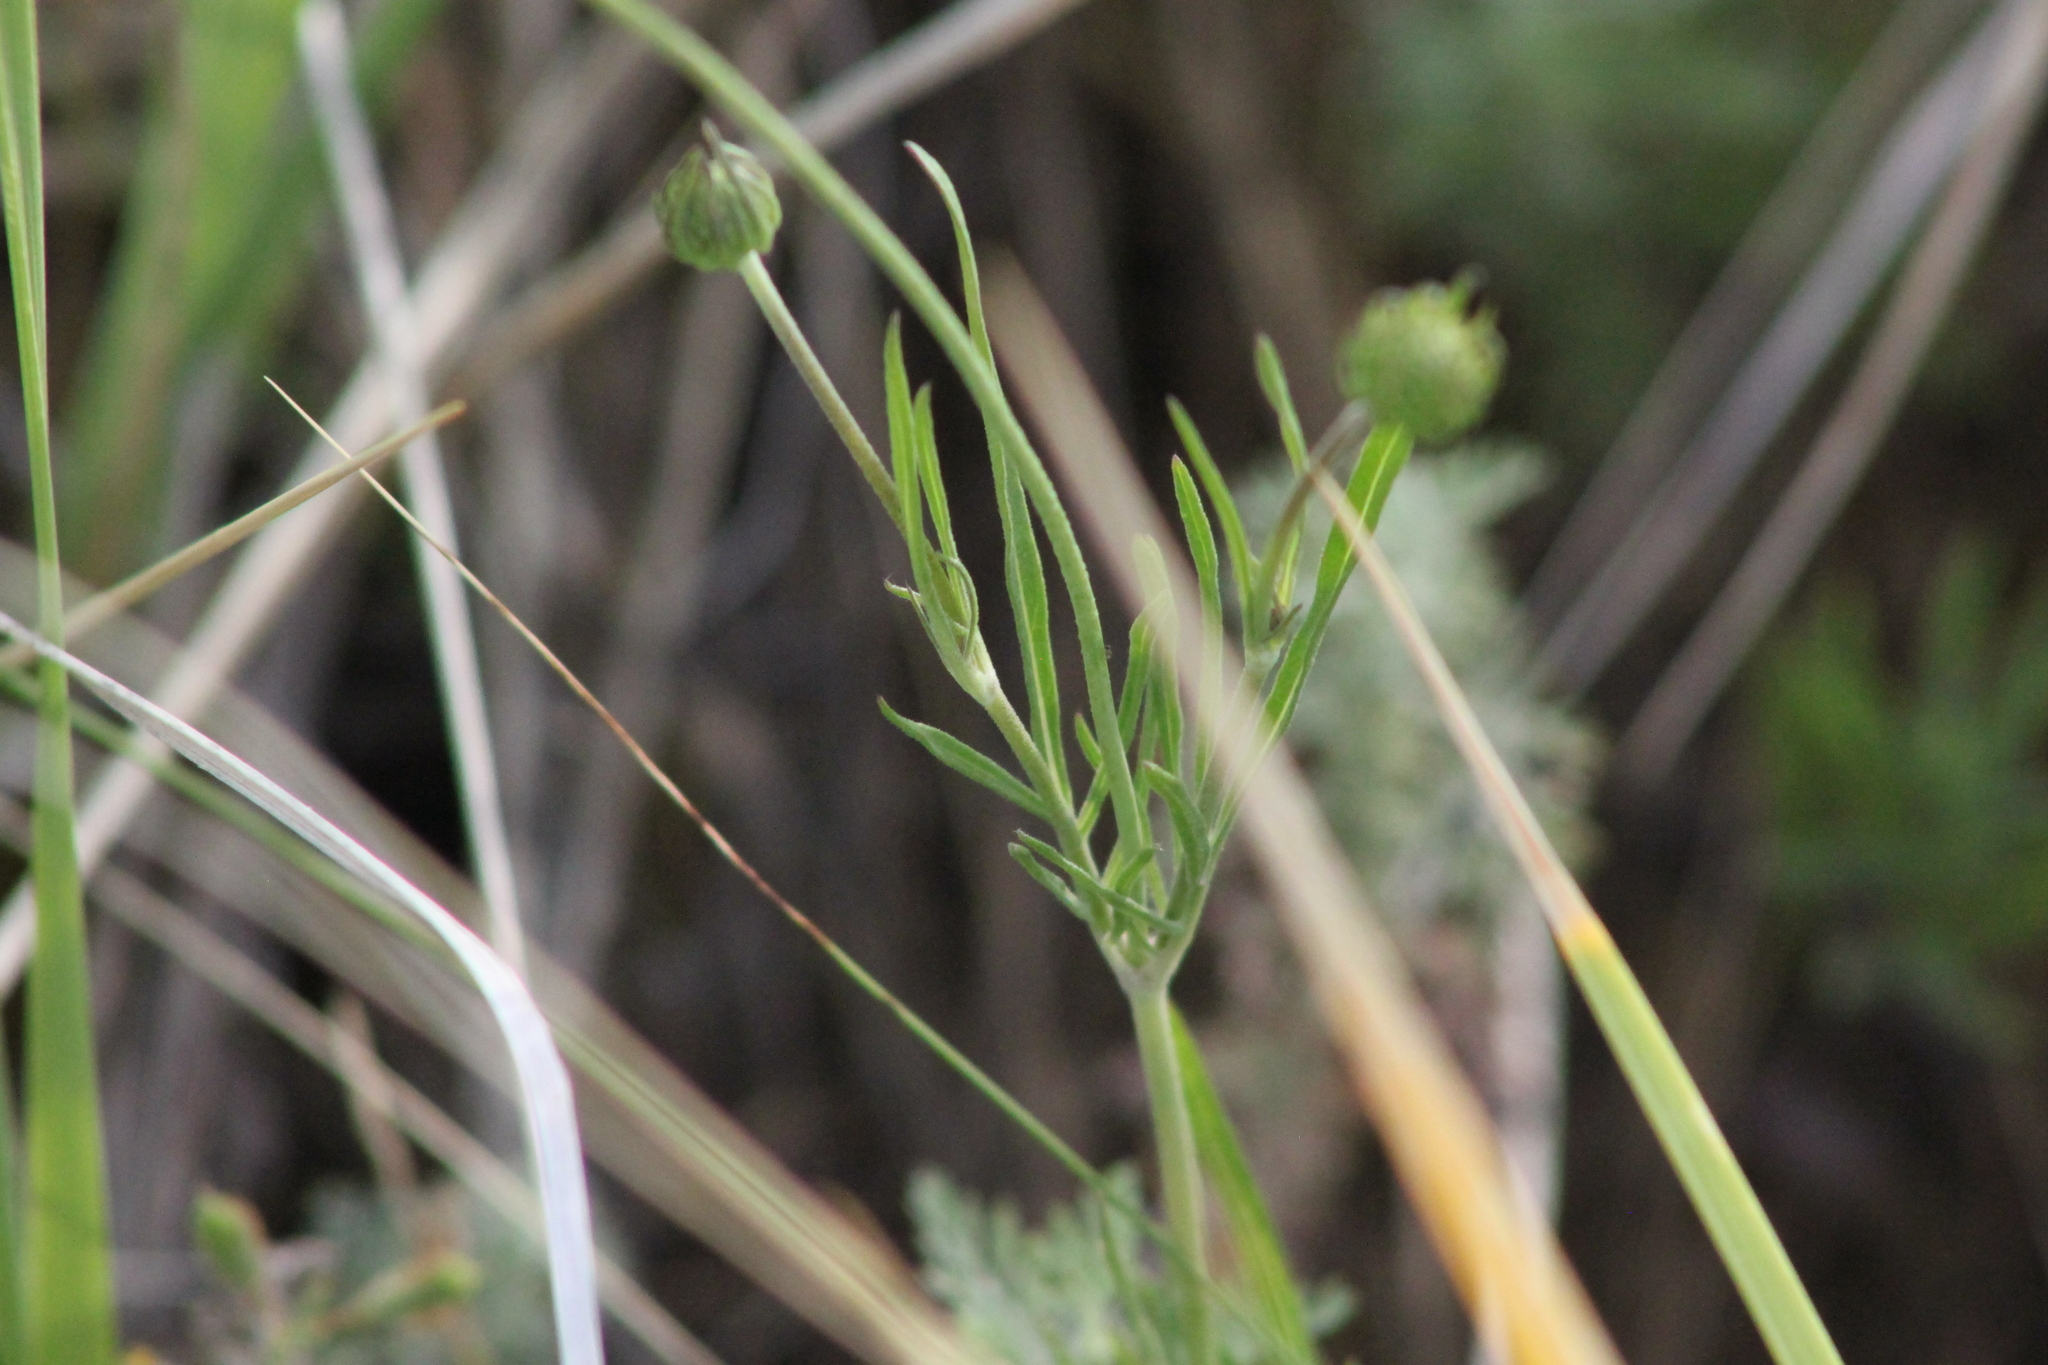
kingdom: Plantae
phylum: Tracheophyta
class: Magnoliopsida
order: Dipsacales
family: Caprifoliaceae
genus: Scabiosa
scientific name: Scabiosa ochroleuca
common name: Cream pincushions
